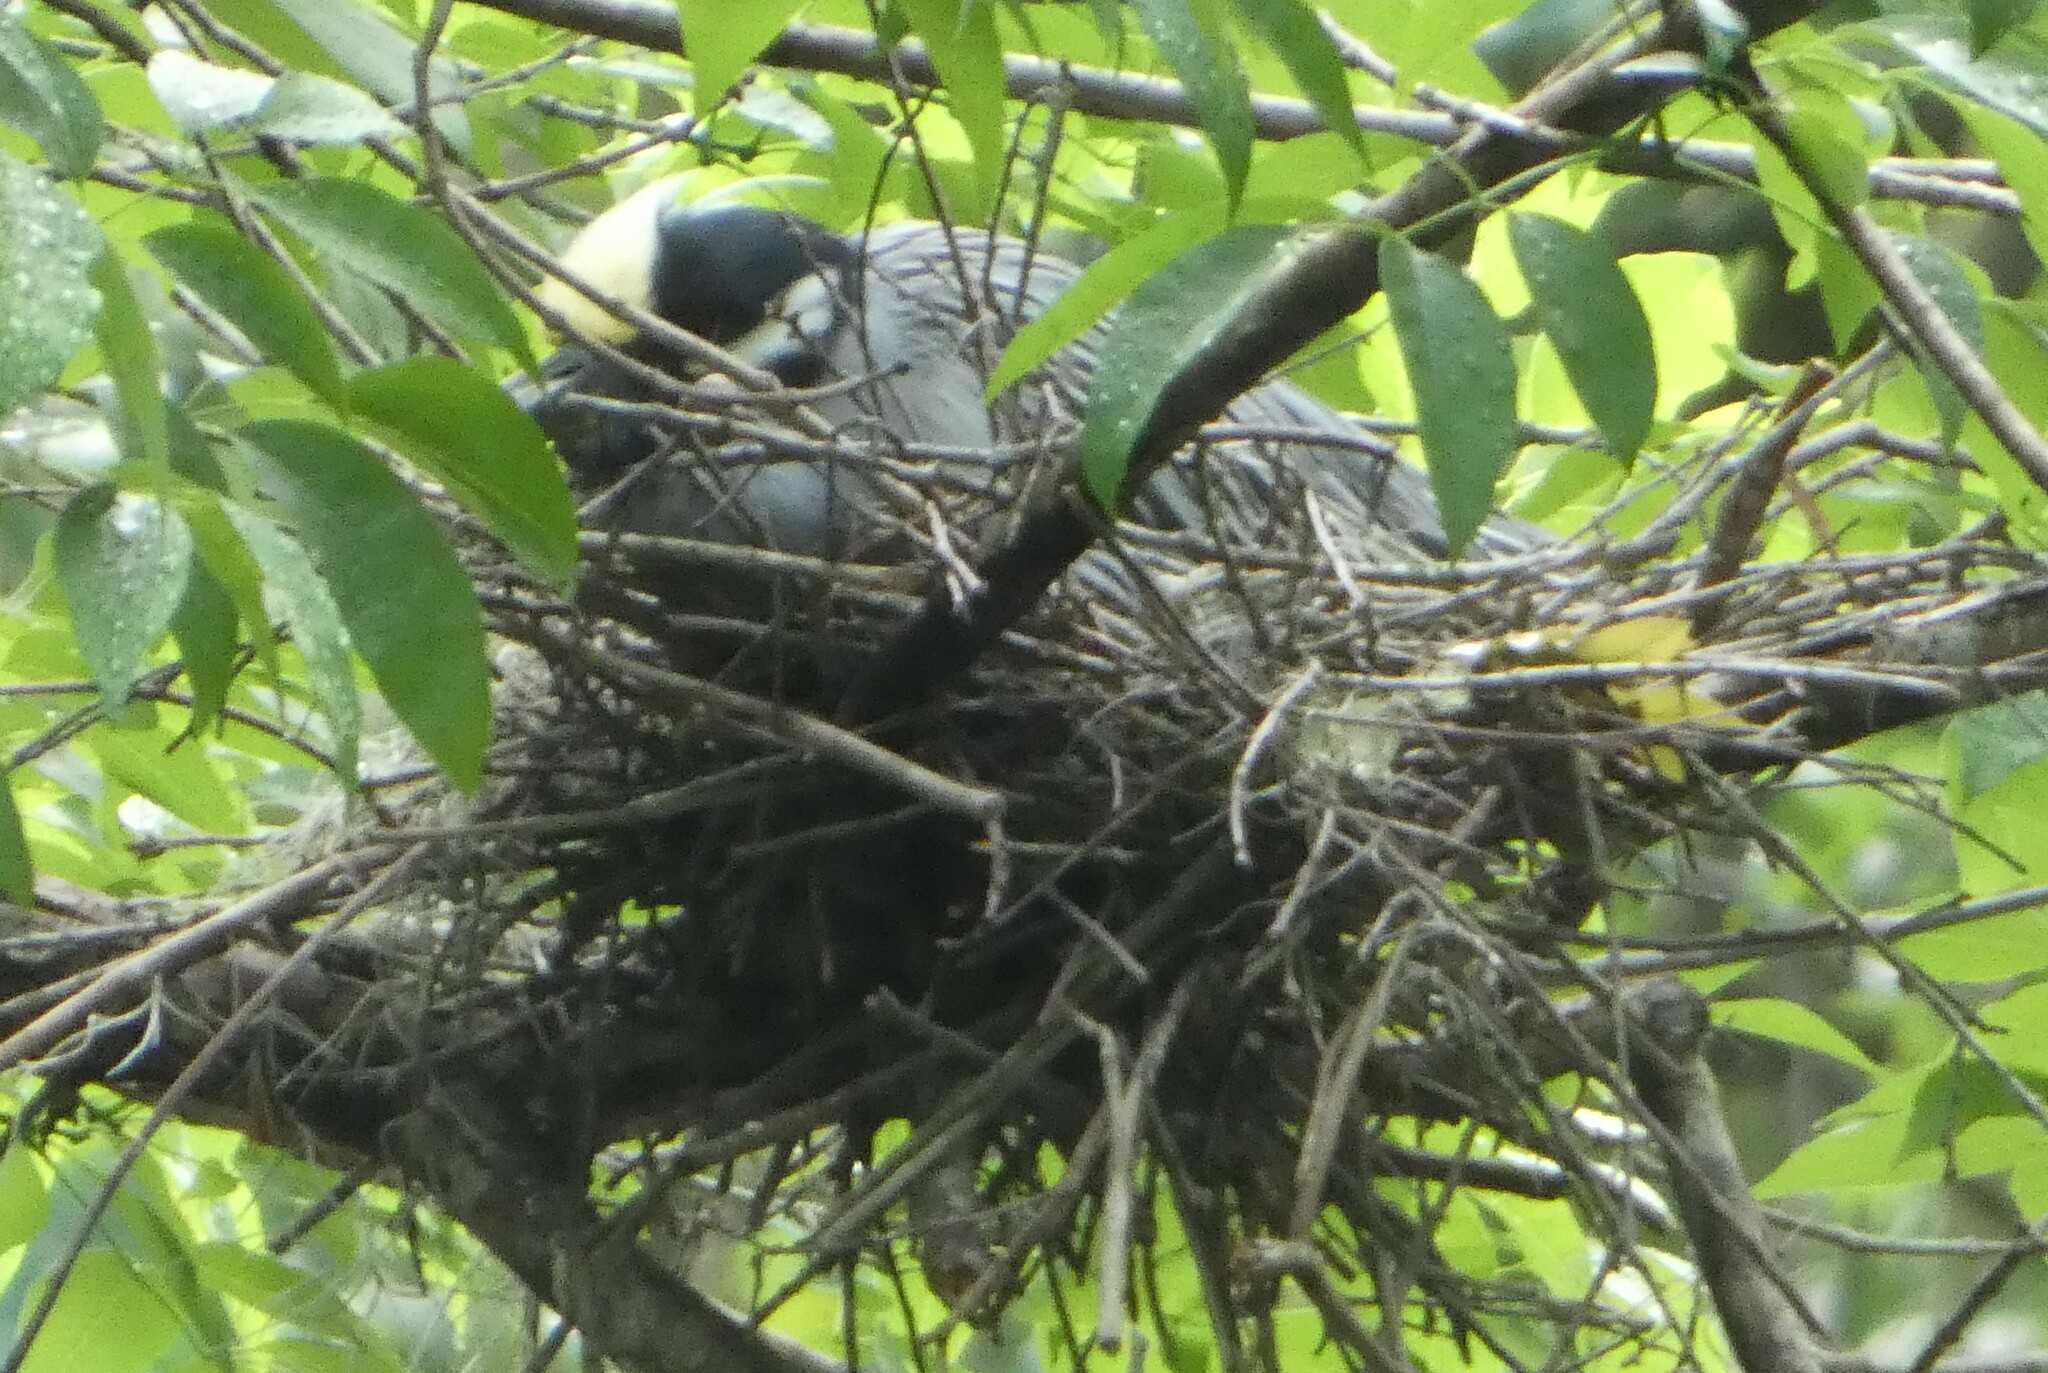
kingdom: Animalia
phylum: Chordata
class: Aves
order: Pelecaniformes
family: Ardeidae
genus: Nyctanassa
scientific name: Nyctanassa violacea
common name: Yellow-crowned night heron
